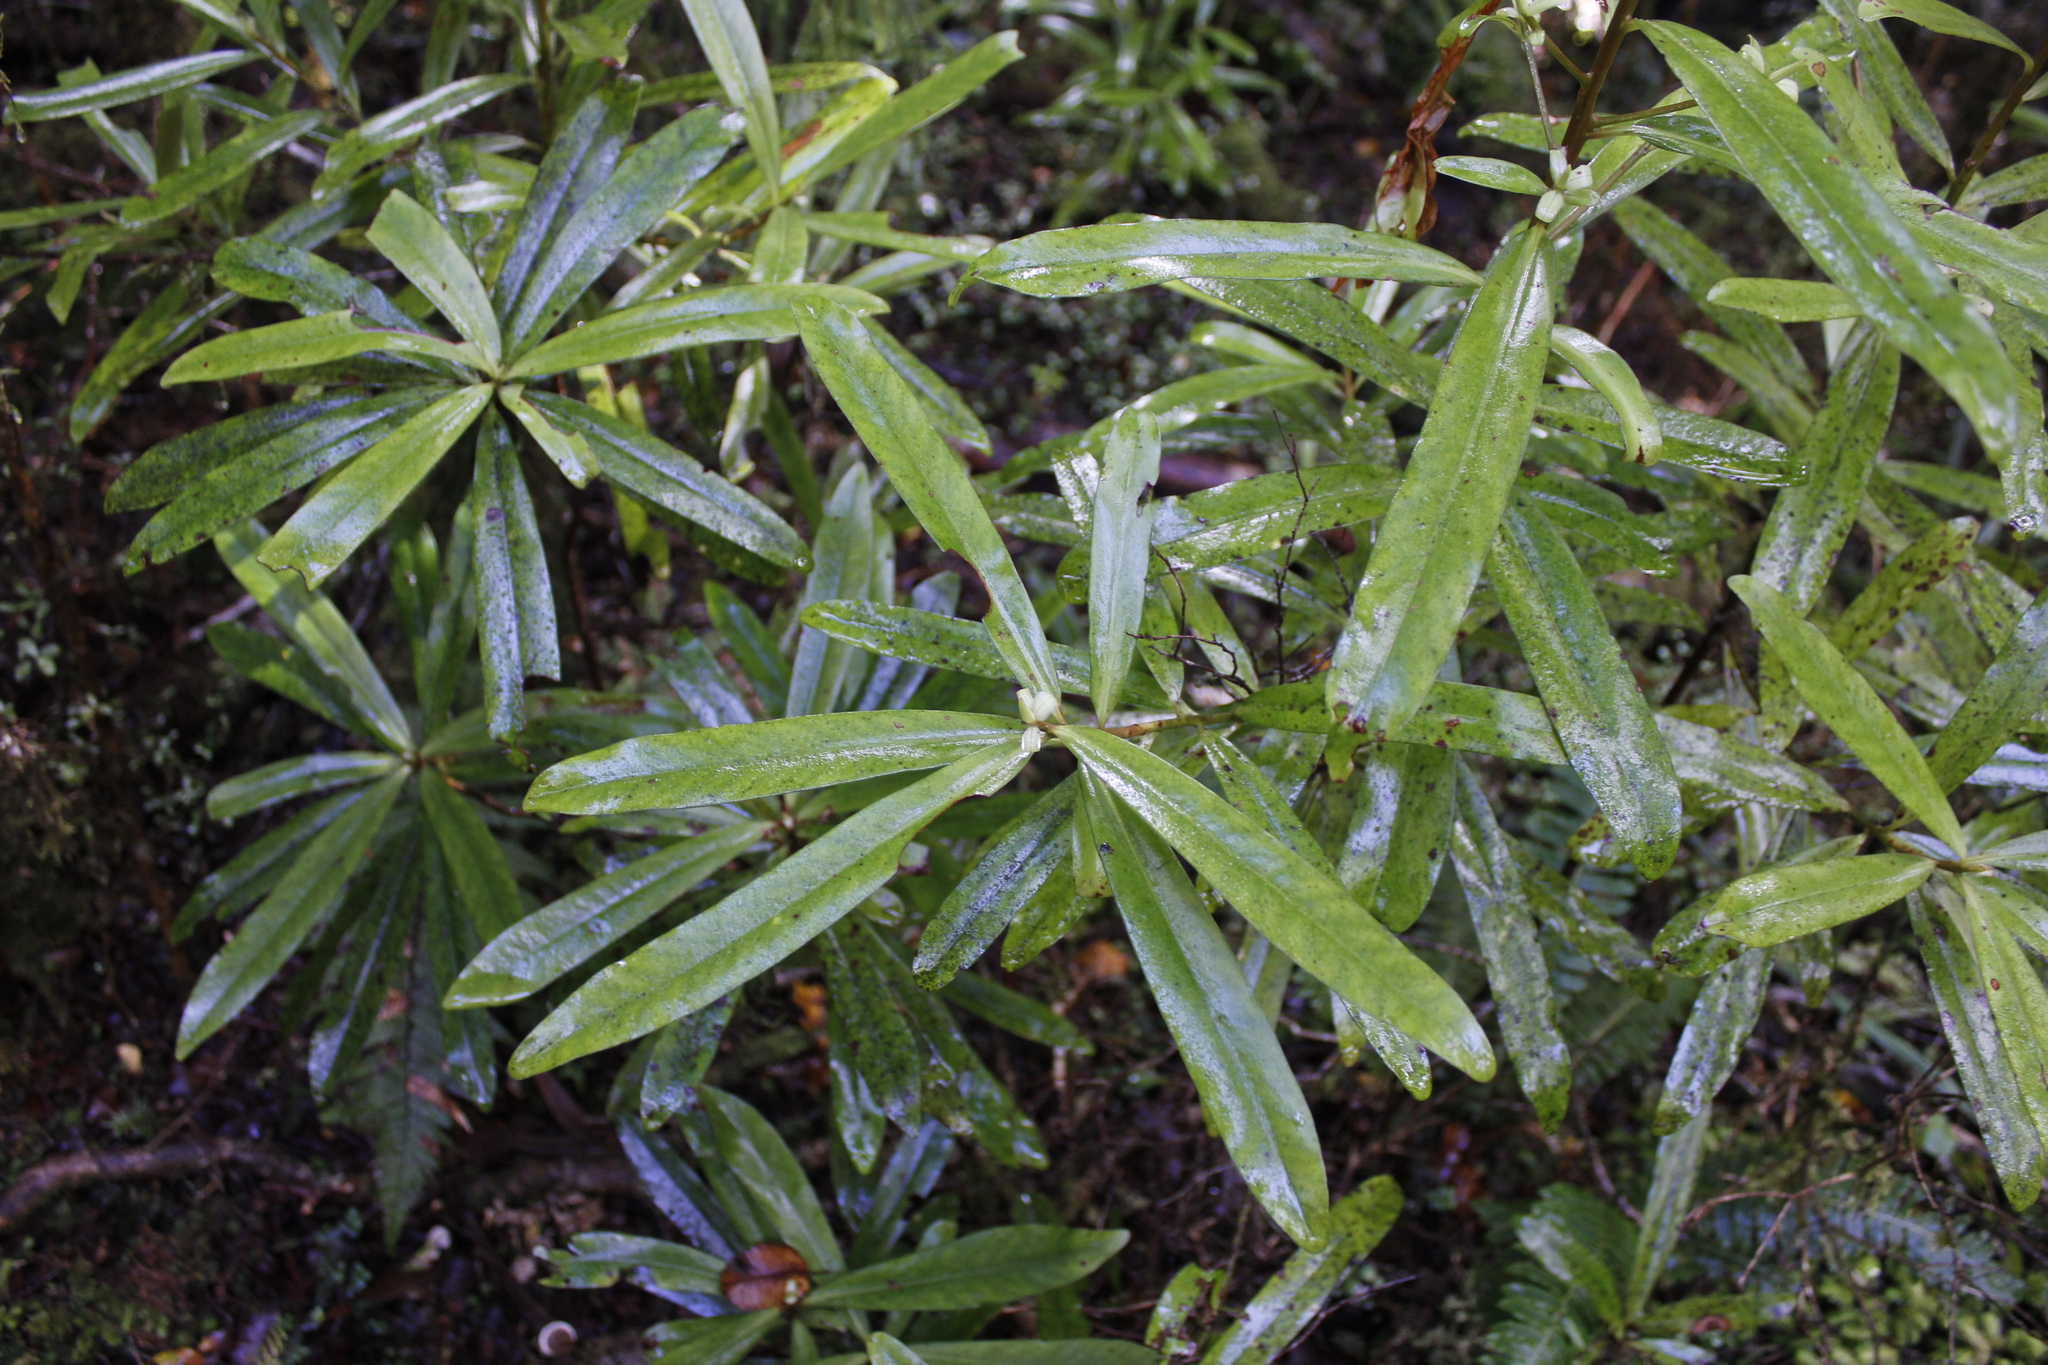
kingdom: Plantae
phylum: Tracheophyta
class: Magnoliopsida
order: Ericales
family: Primulaceae
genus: Myrsine
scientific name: Myrsine salicina
